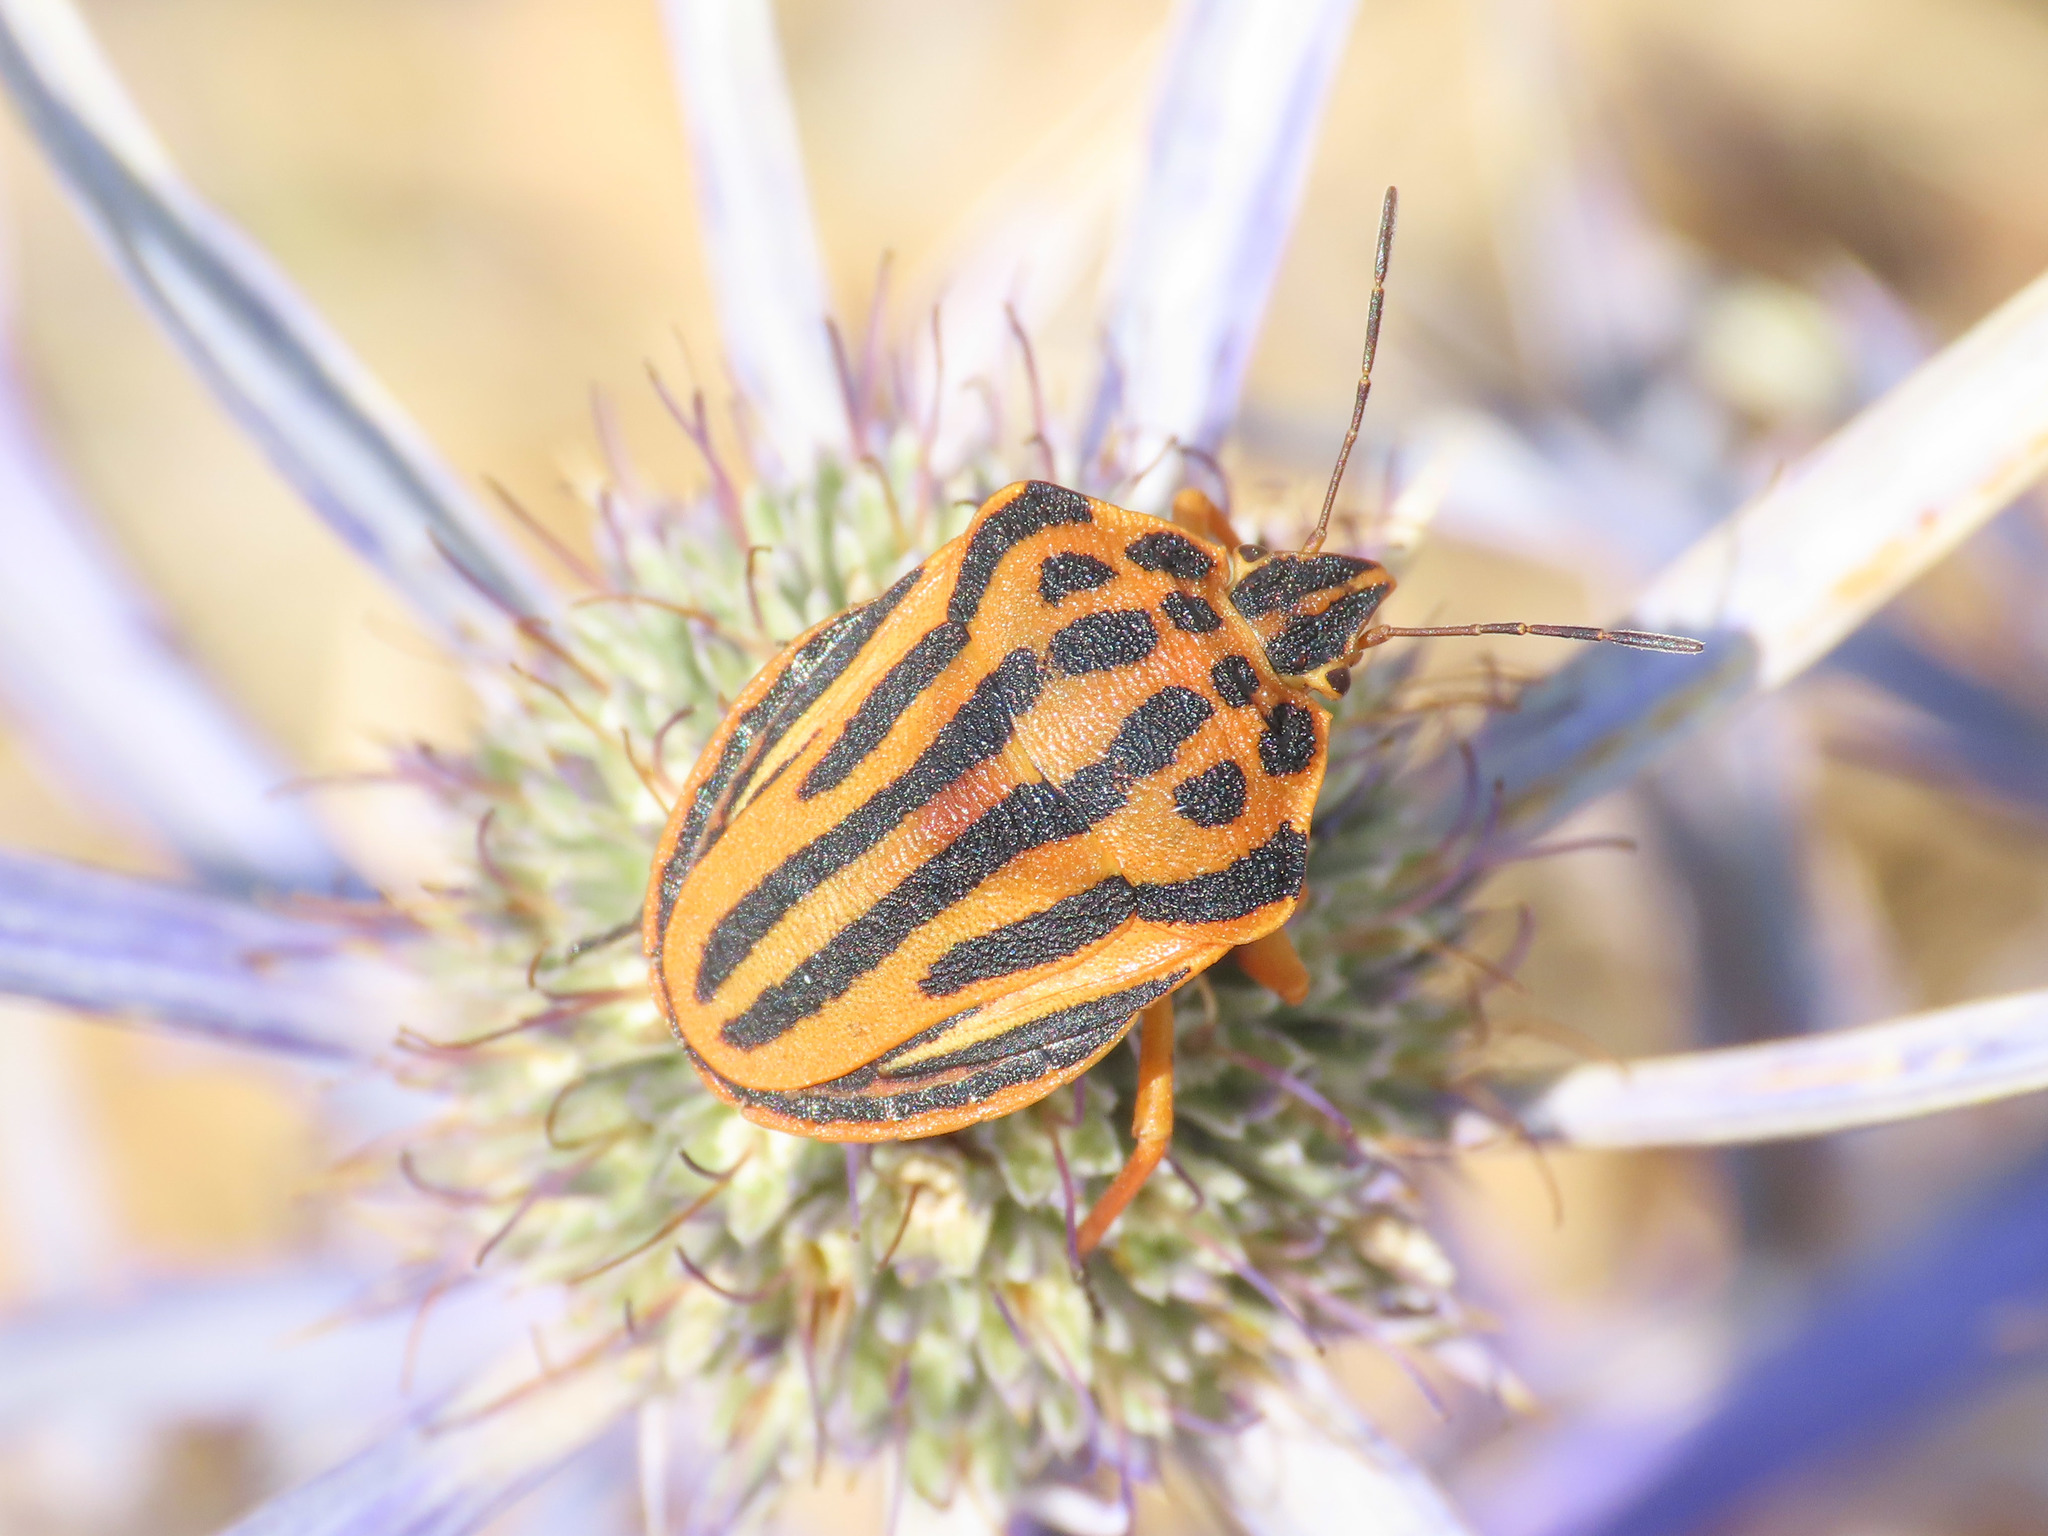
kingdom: Animalia
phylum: Arthropoda
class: Insecta
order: Hemiptera
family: Pentatomidae
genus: Graphosoma
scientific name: Graphosoma semipunctatum
